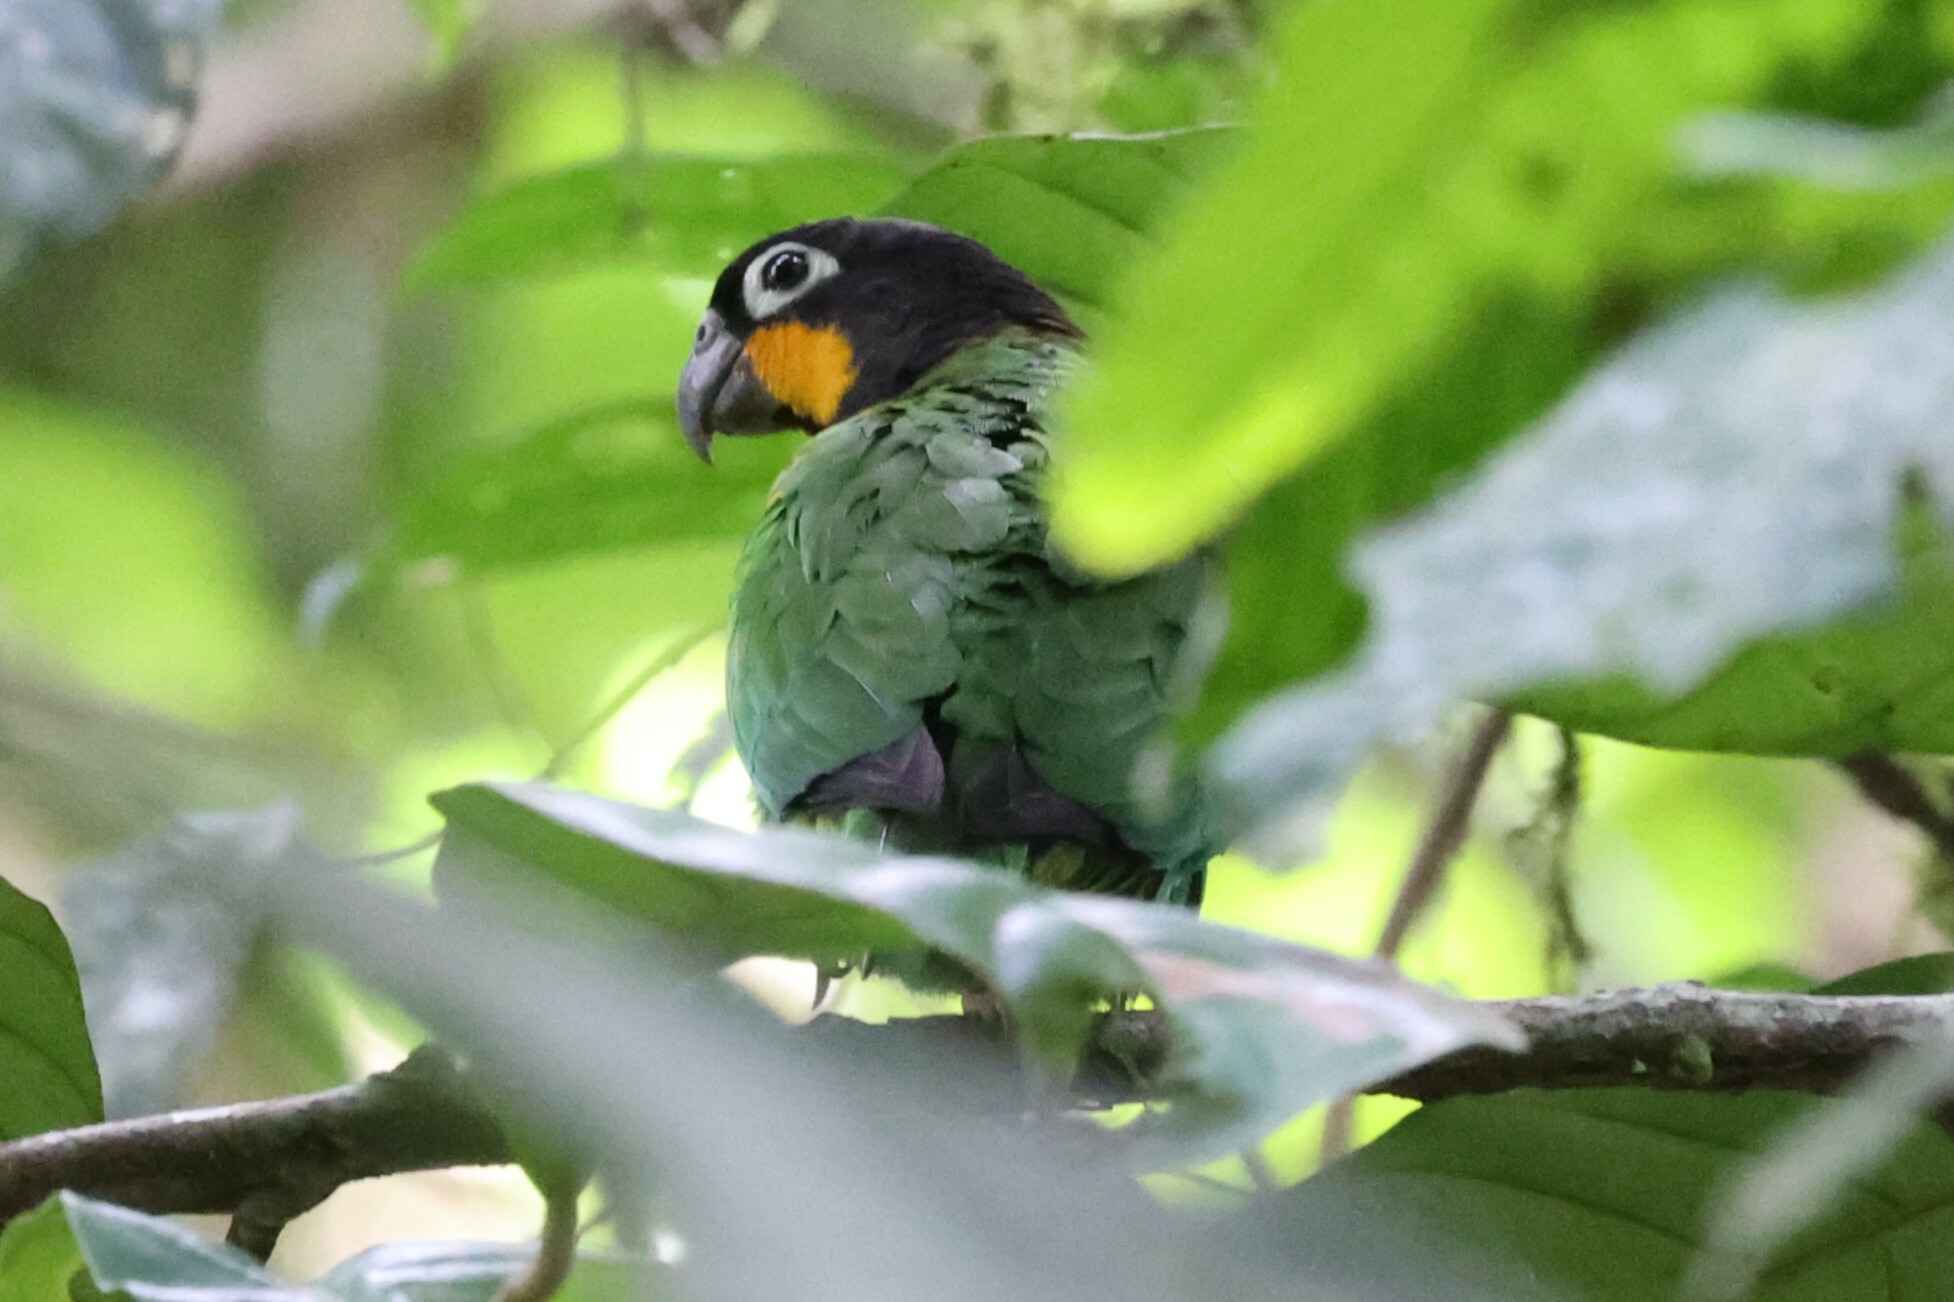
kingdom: Animalia
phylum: Chordata
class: Aves
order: Psittaciformes
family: Psittacidae
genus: Pionopsitta
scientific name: Pionopsitta barrabandi
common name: Orange-cheeked parrot
